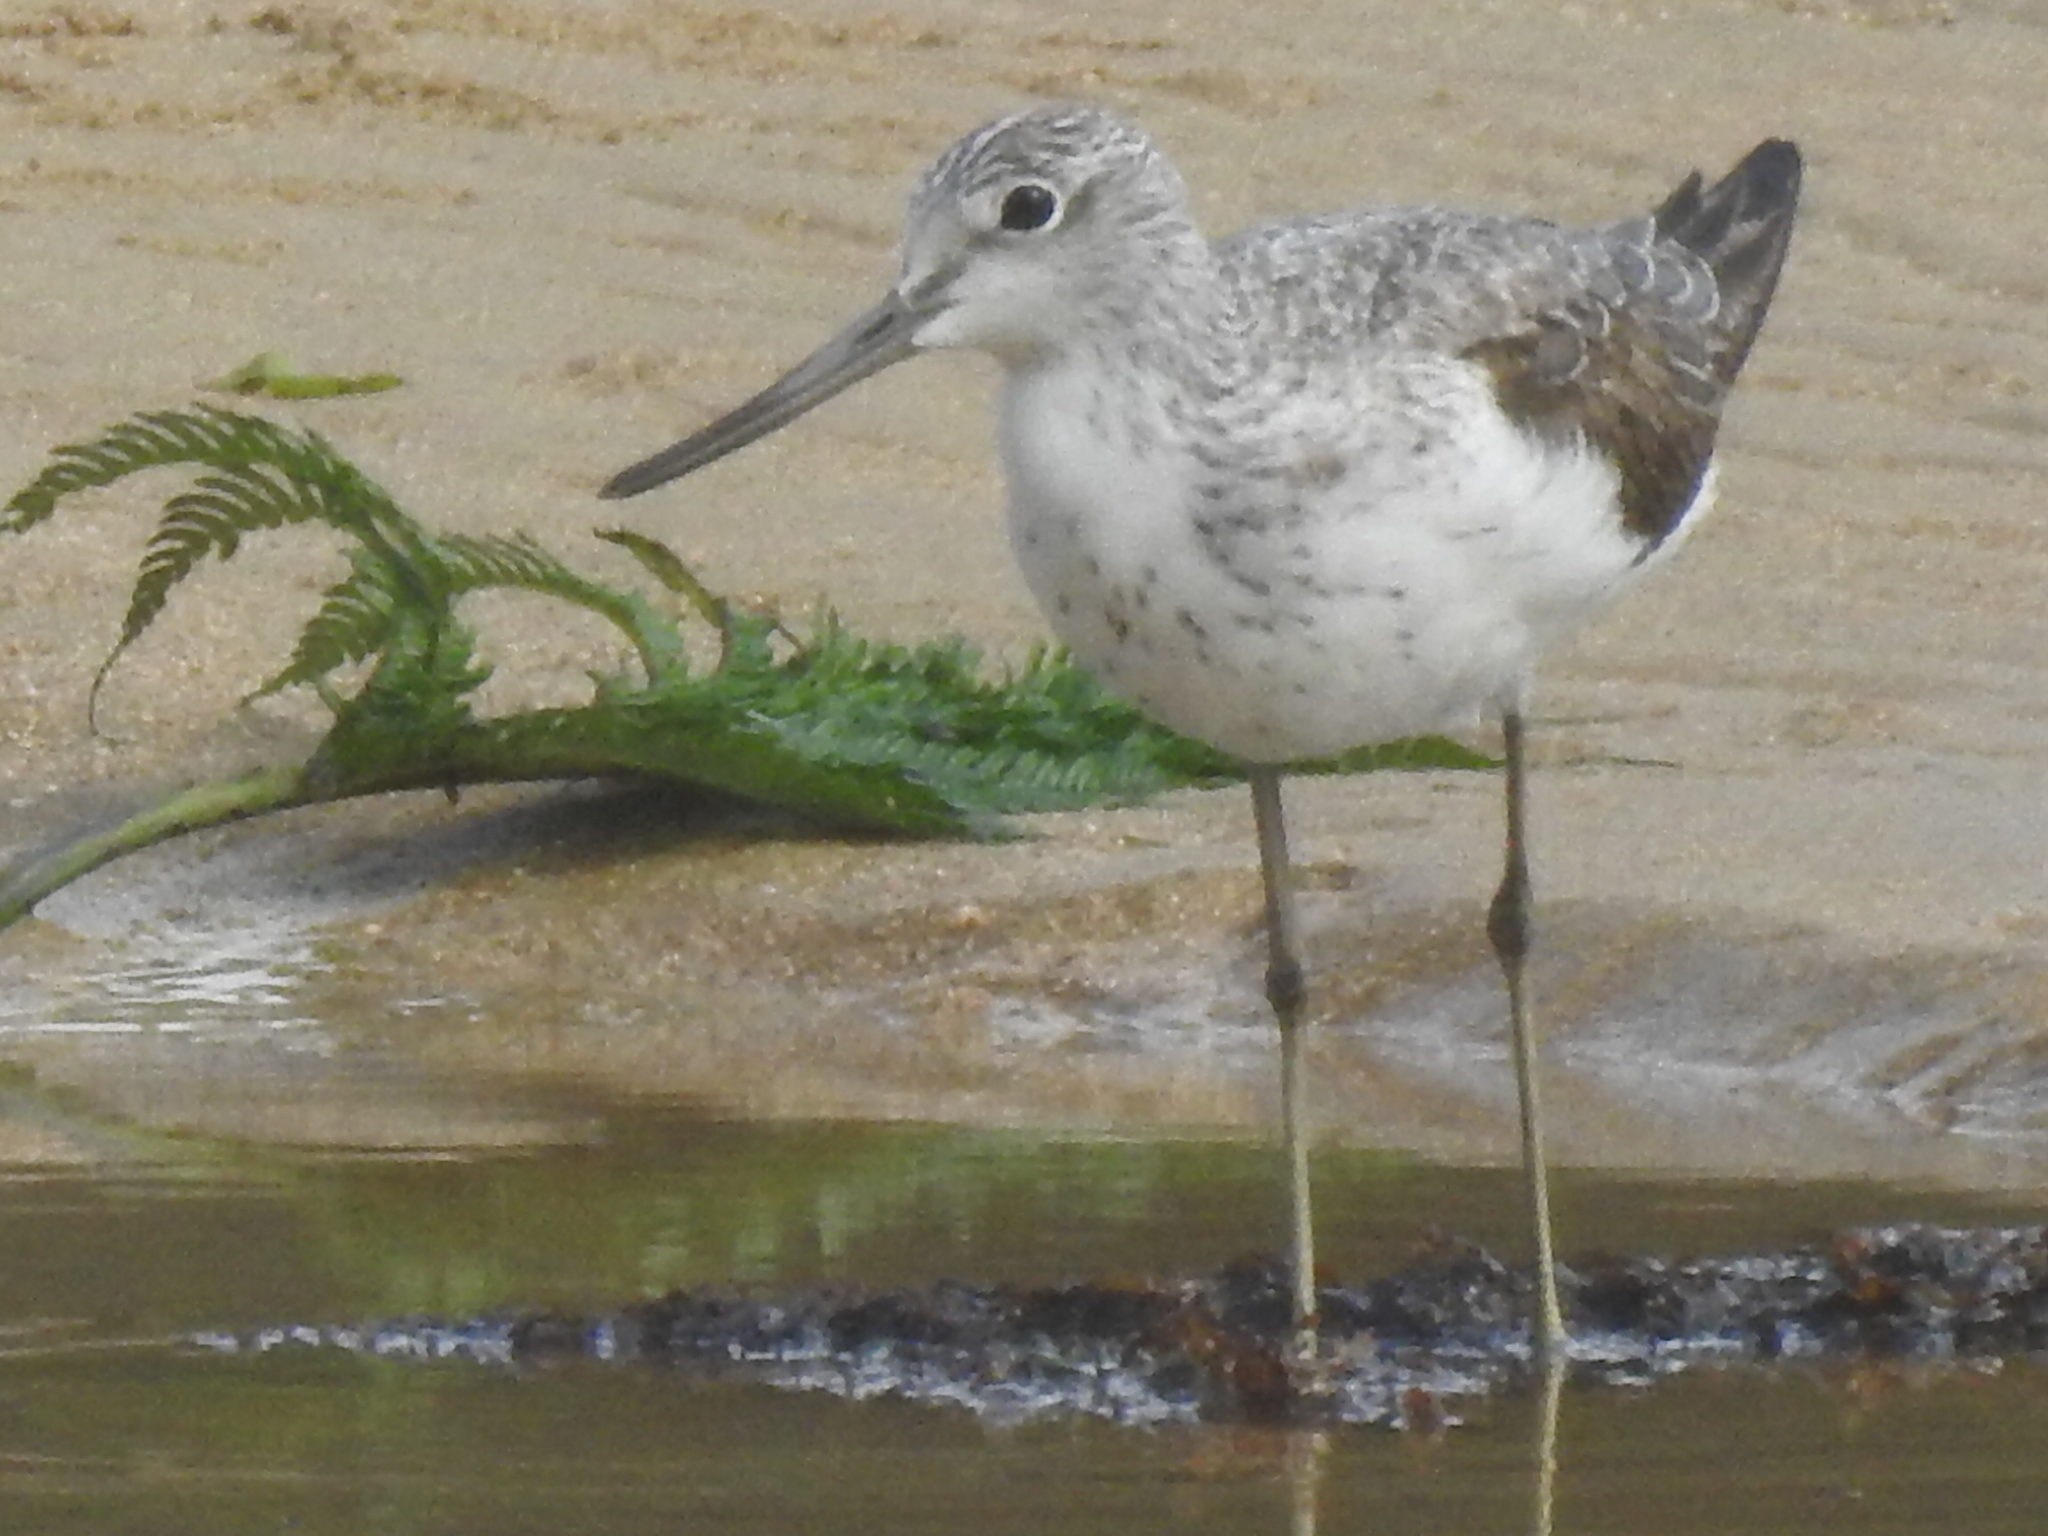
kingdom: Animalia
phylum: Chordata
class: Aves
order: Charadriiformes
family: Scolopacidae
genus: Tringa
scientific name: Tringa nebularia
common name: Common greenshank
